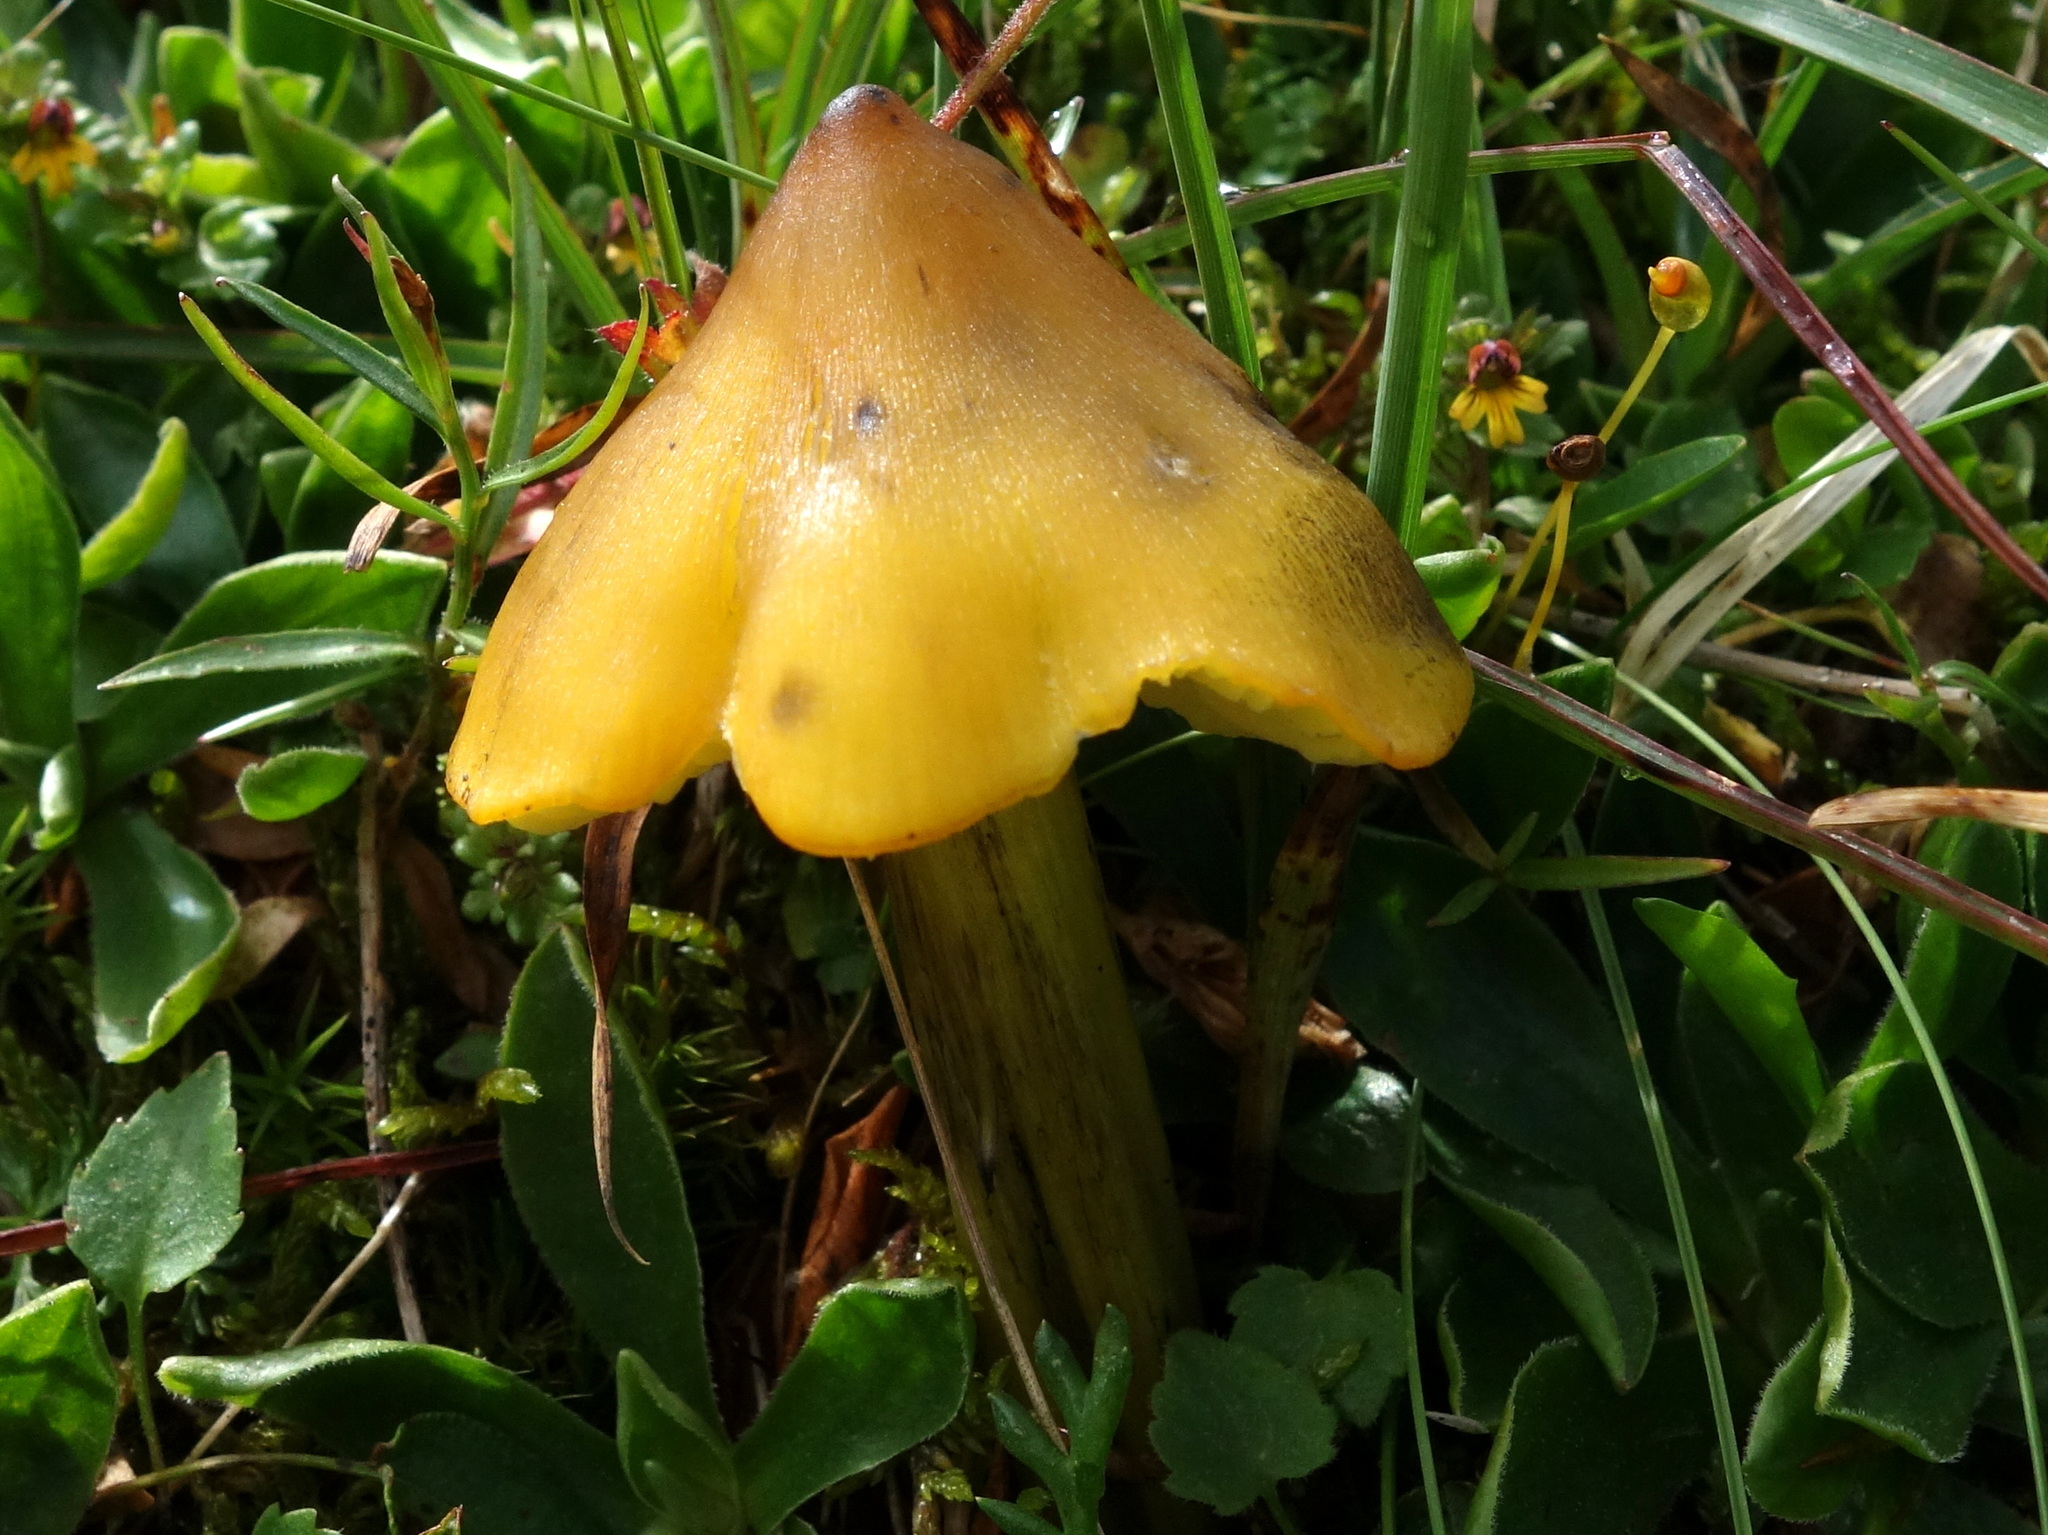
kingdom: Fungi
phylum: Basidiomycota
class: Agaricomycetes
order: Agaricales
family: Hygrophoraceae
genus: Hygrocybe
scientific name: Hygrocybe conica
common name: Blackening wax-cap
